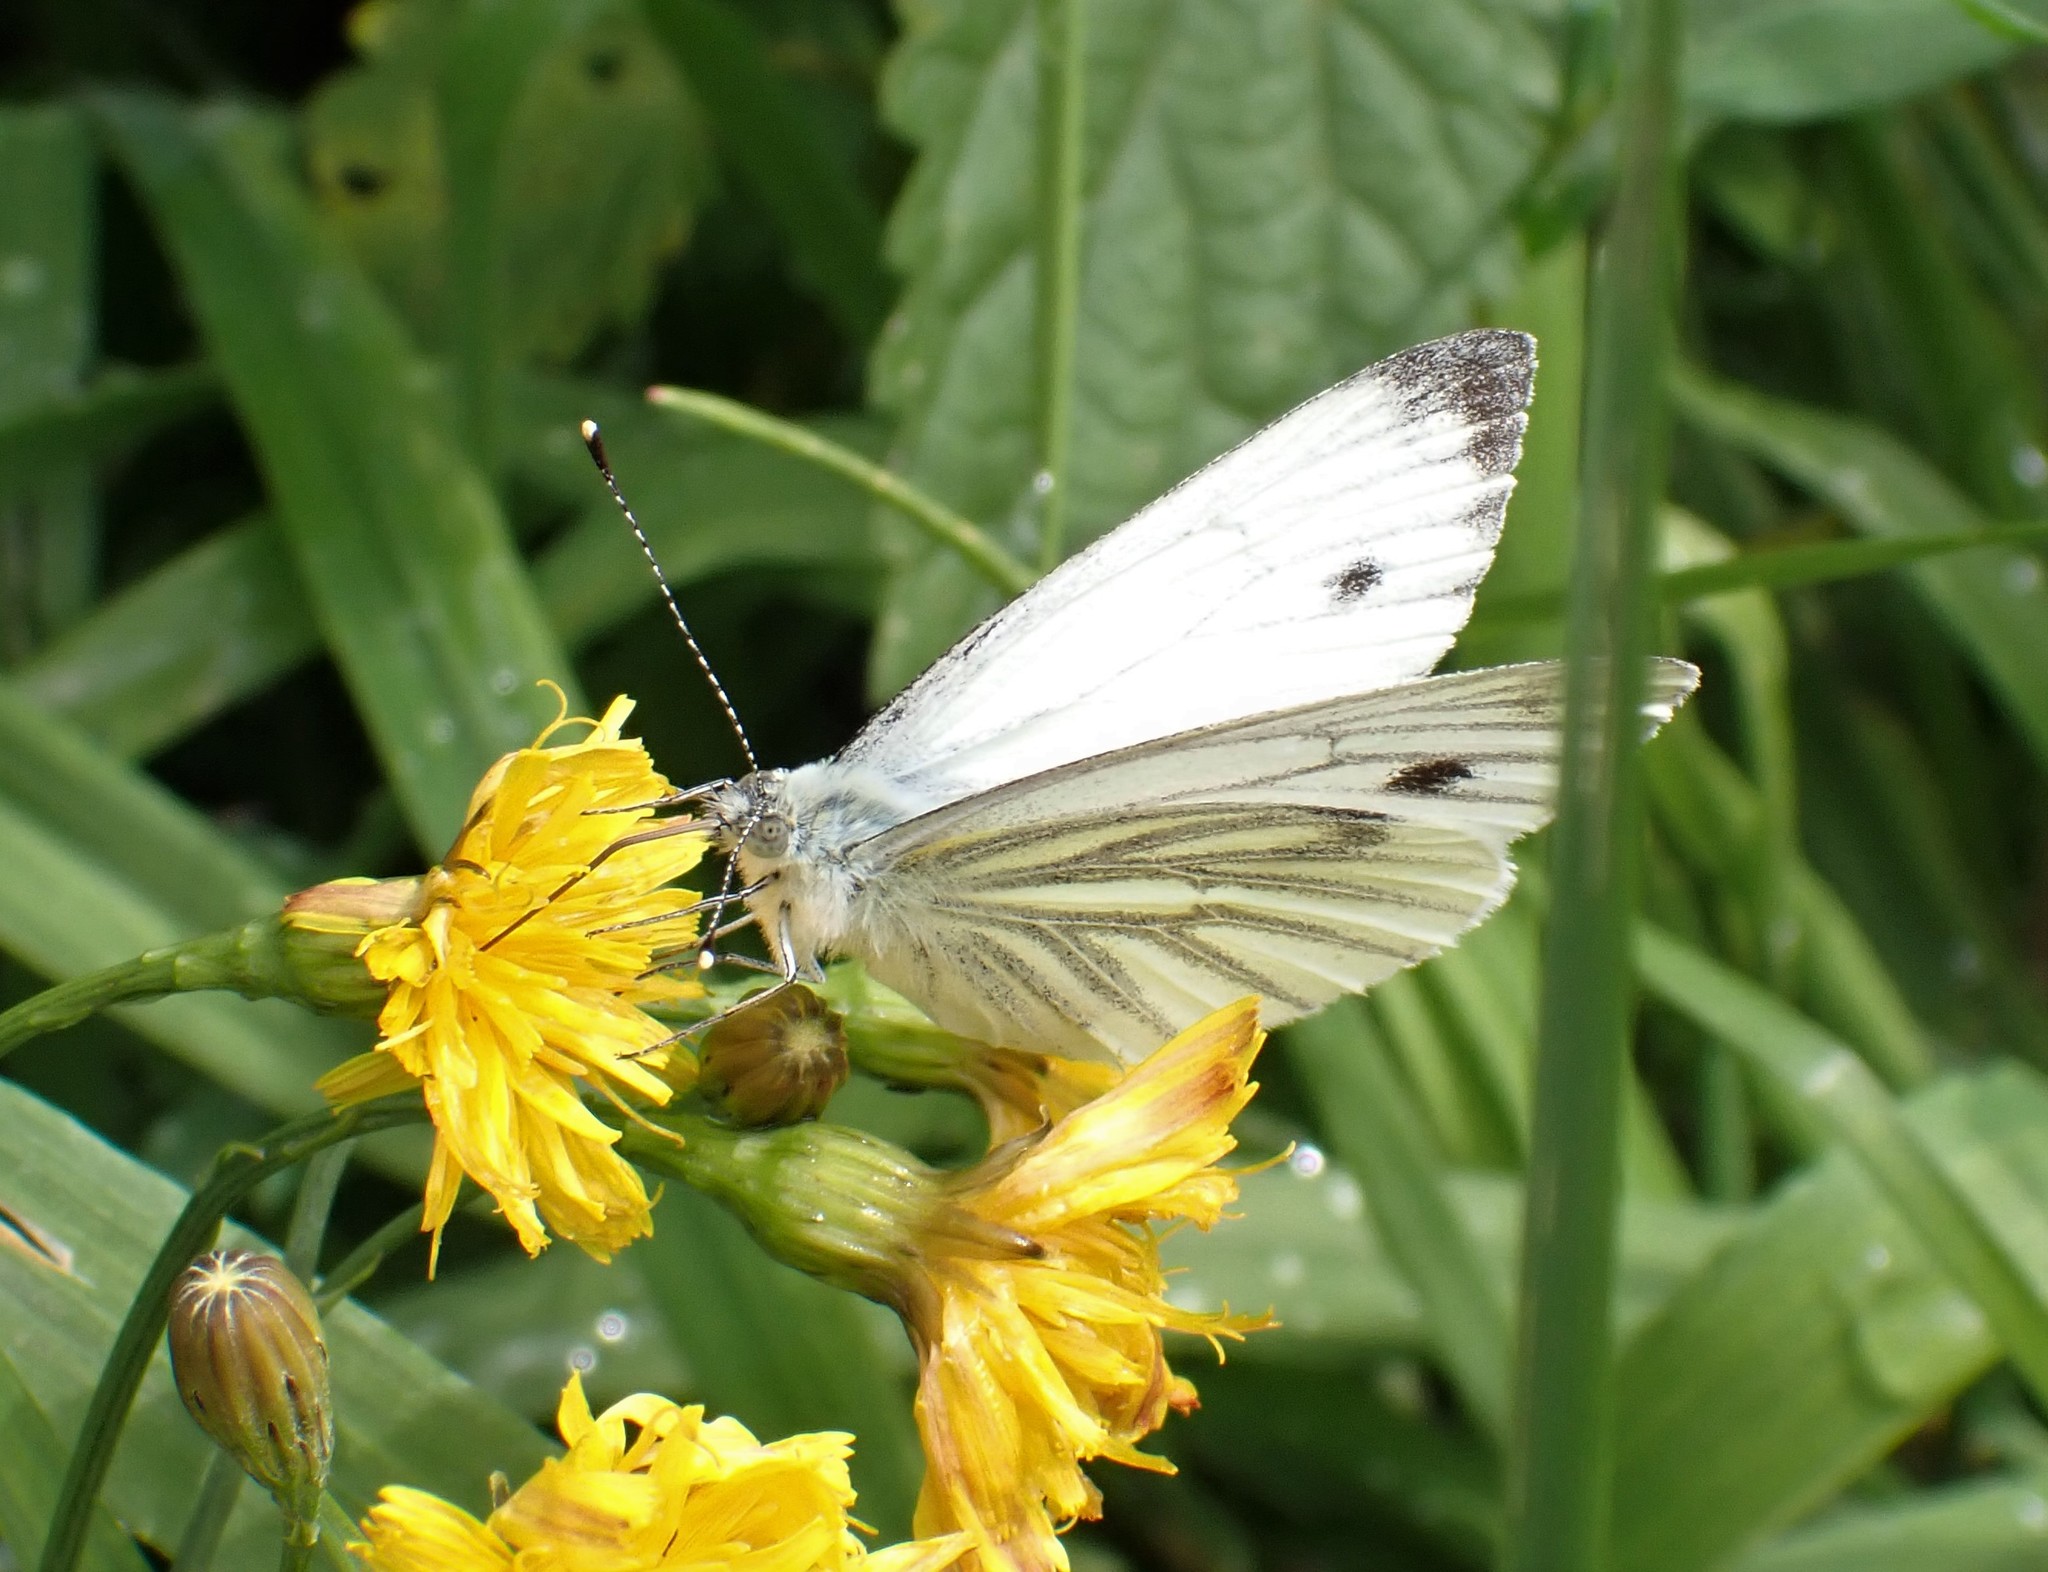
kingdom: Animalia
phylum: Arthropoda
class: Insecta
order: Lepidoptera
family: Pieridae
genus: Pieris
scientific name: Pieris napi
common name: Green-veined white
